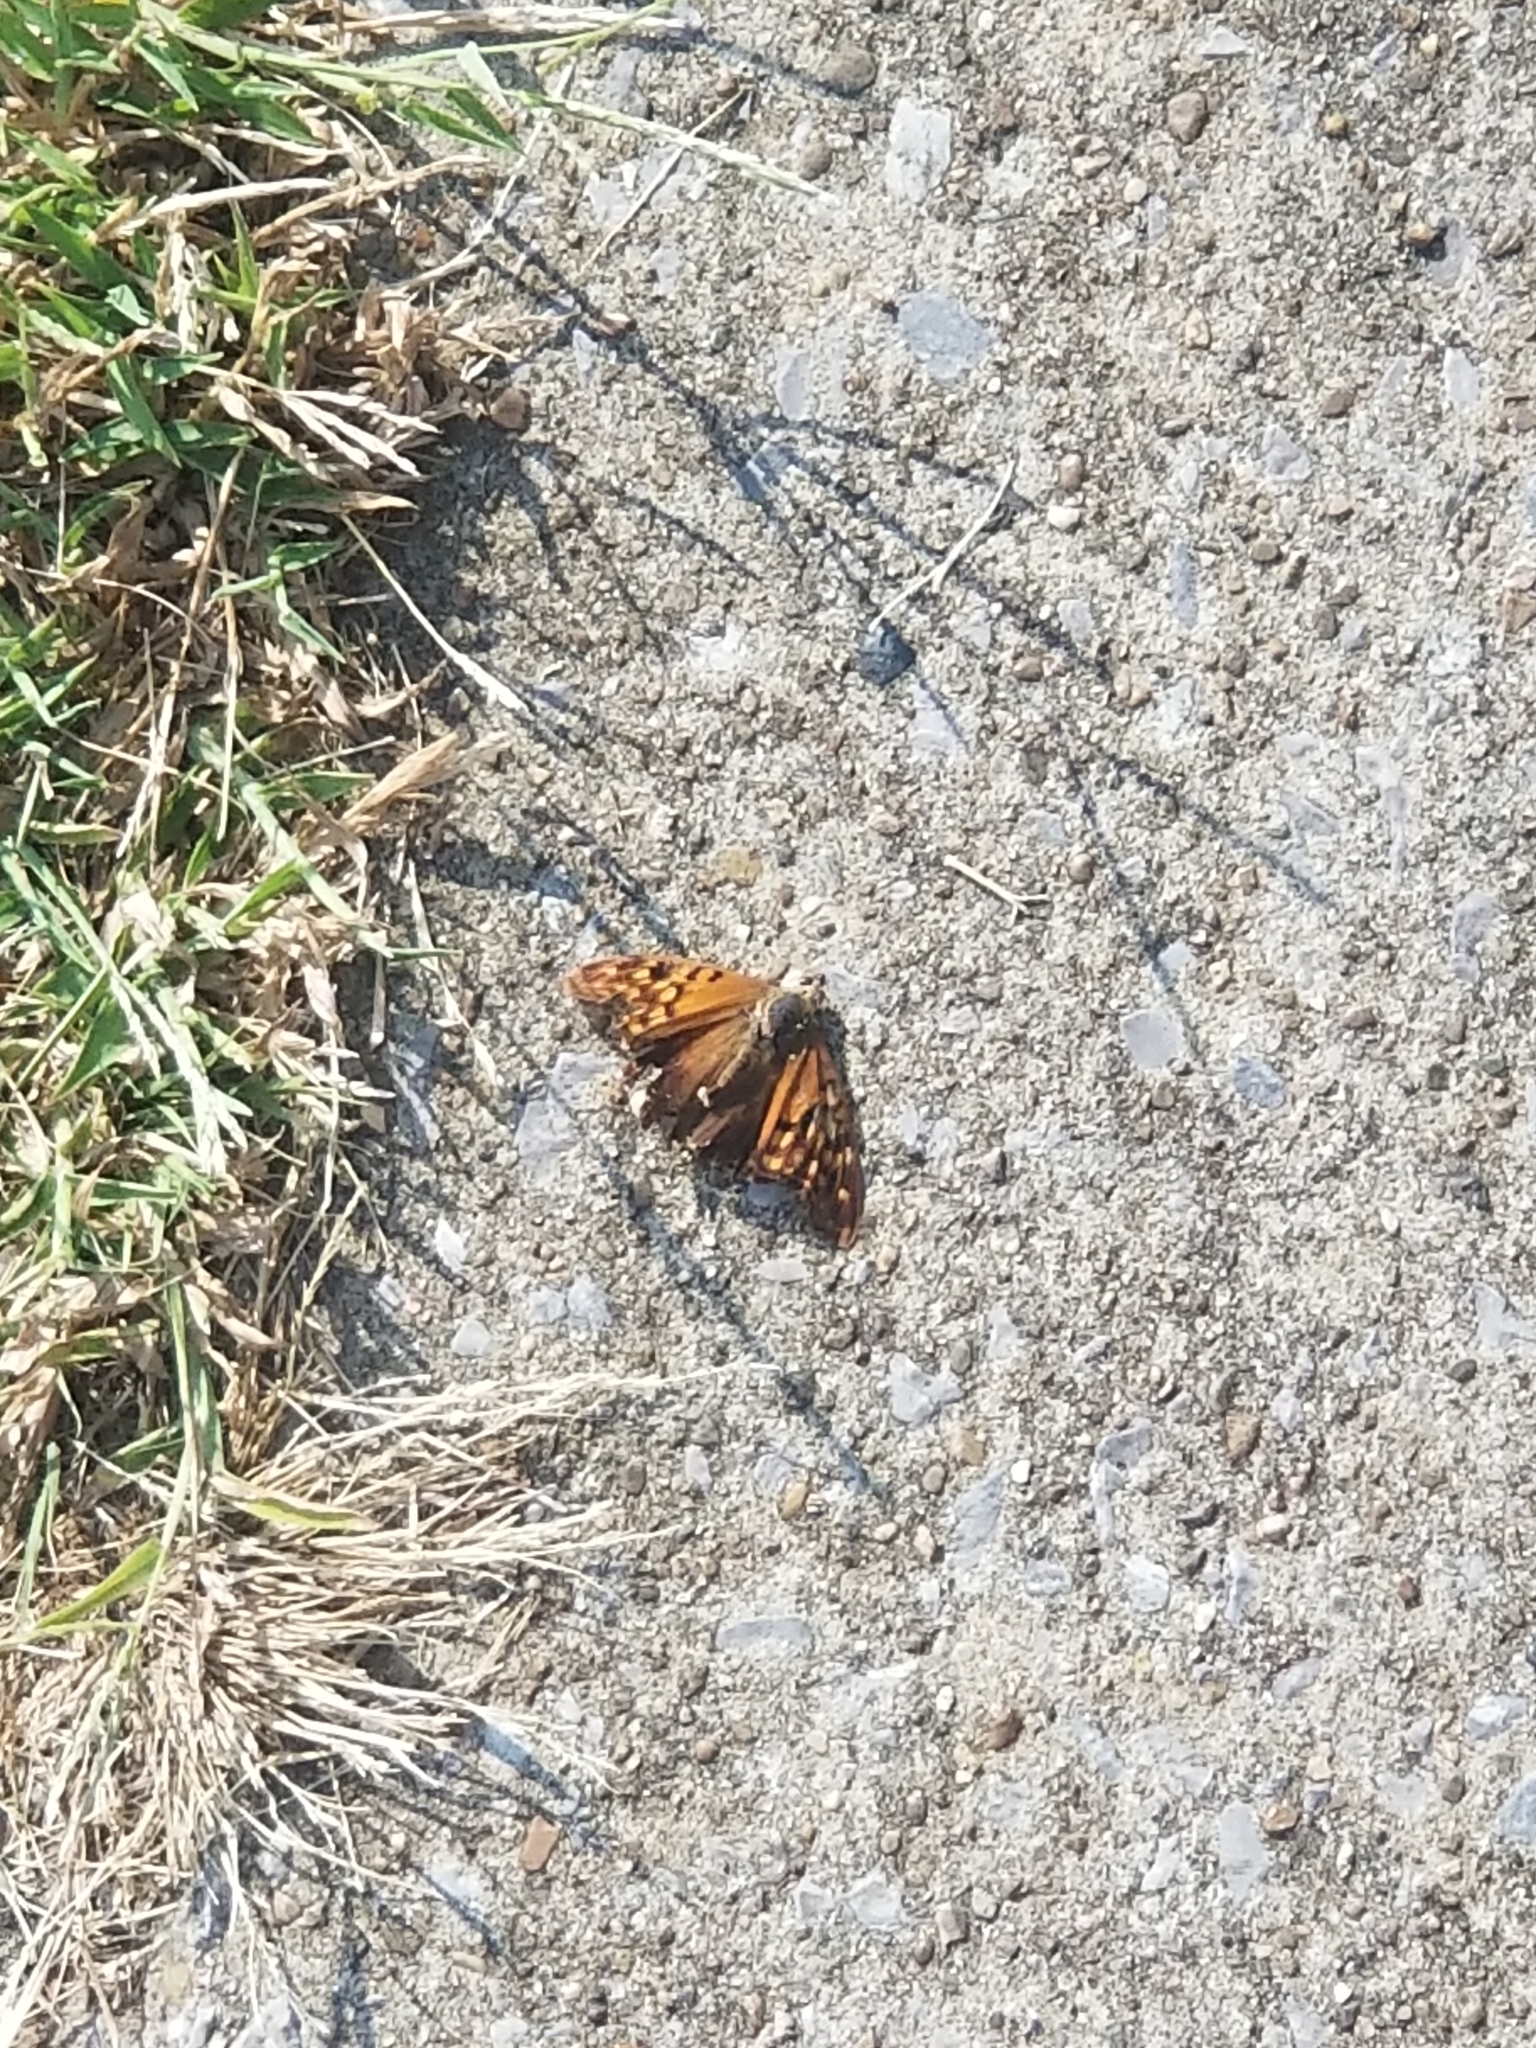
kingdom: Animalia
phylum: Arthropoda
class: Insecta
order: Lepidoptera
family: Nymphalidae
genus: Asterocampa
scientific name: Asterocampa clyton
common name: Tawny emperor
